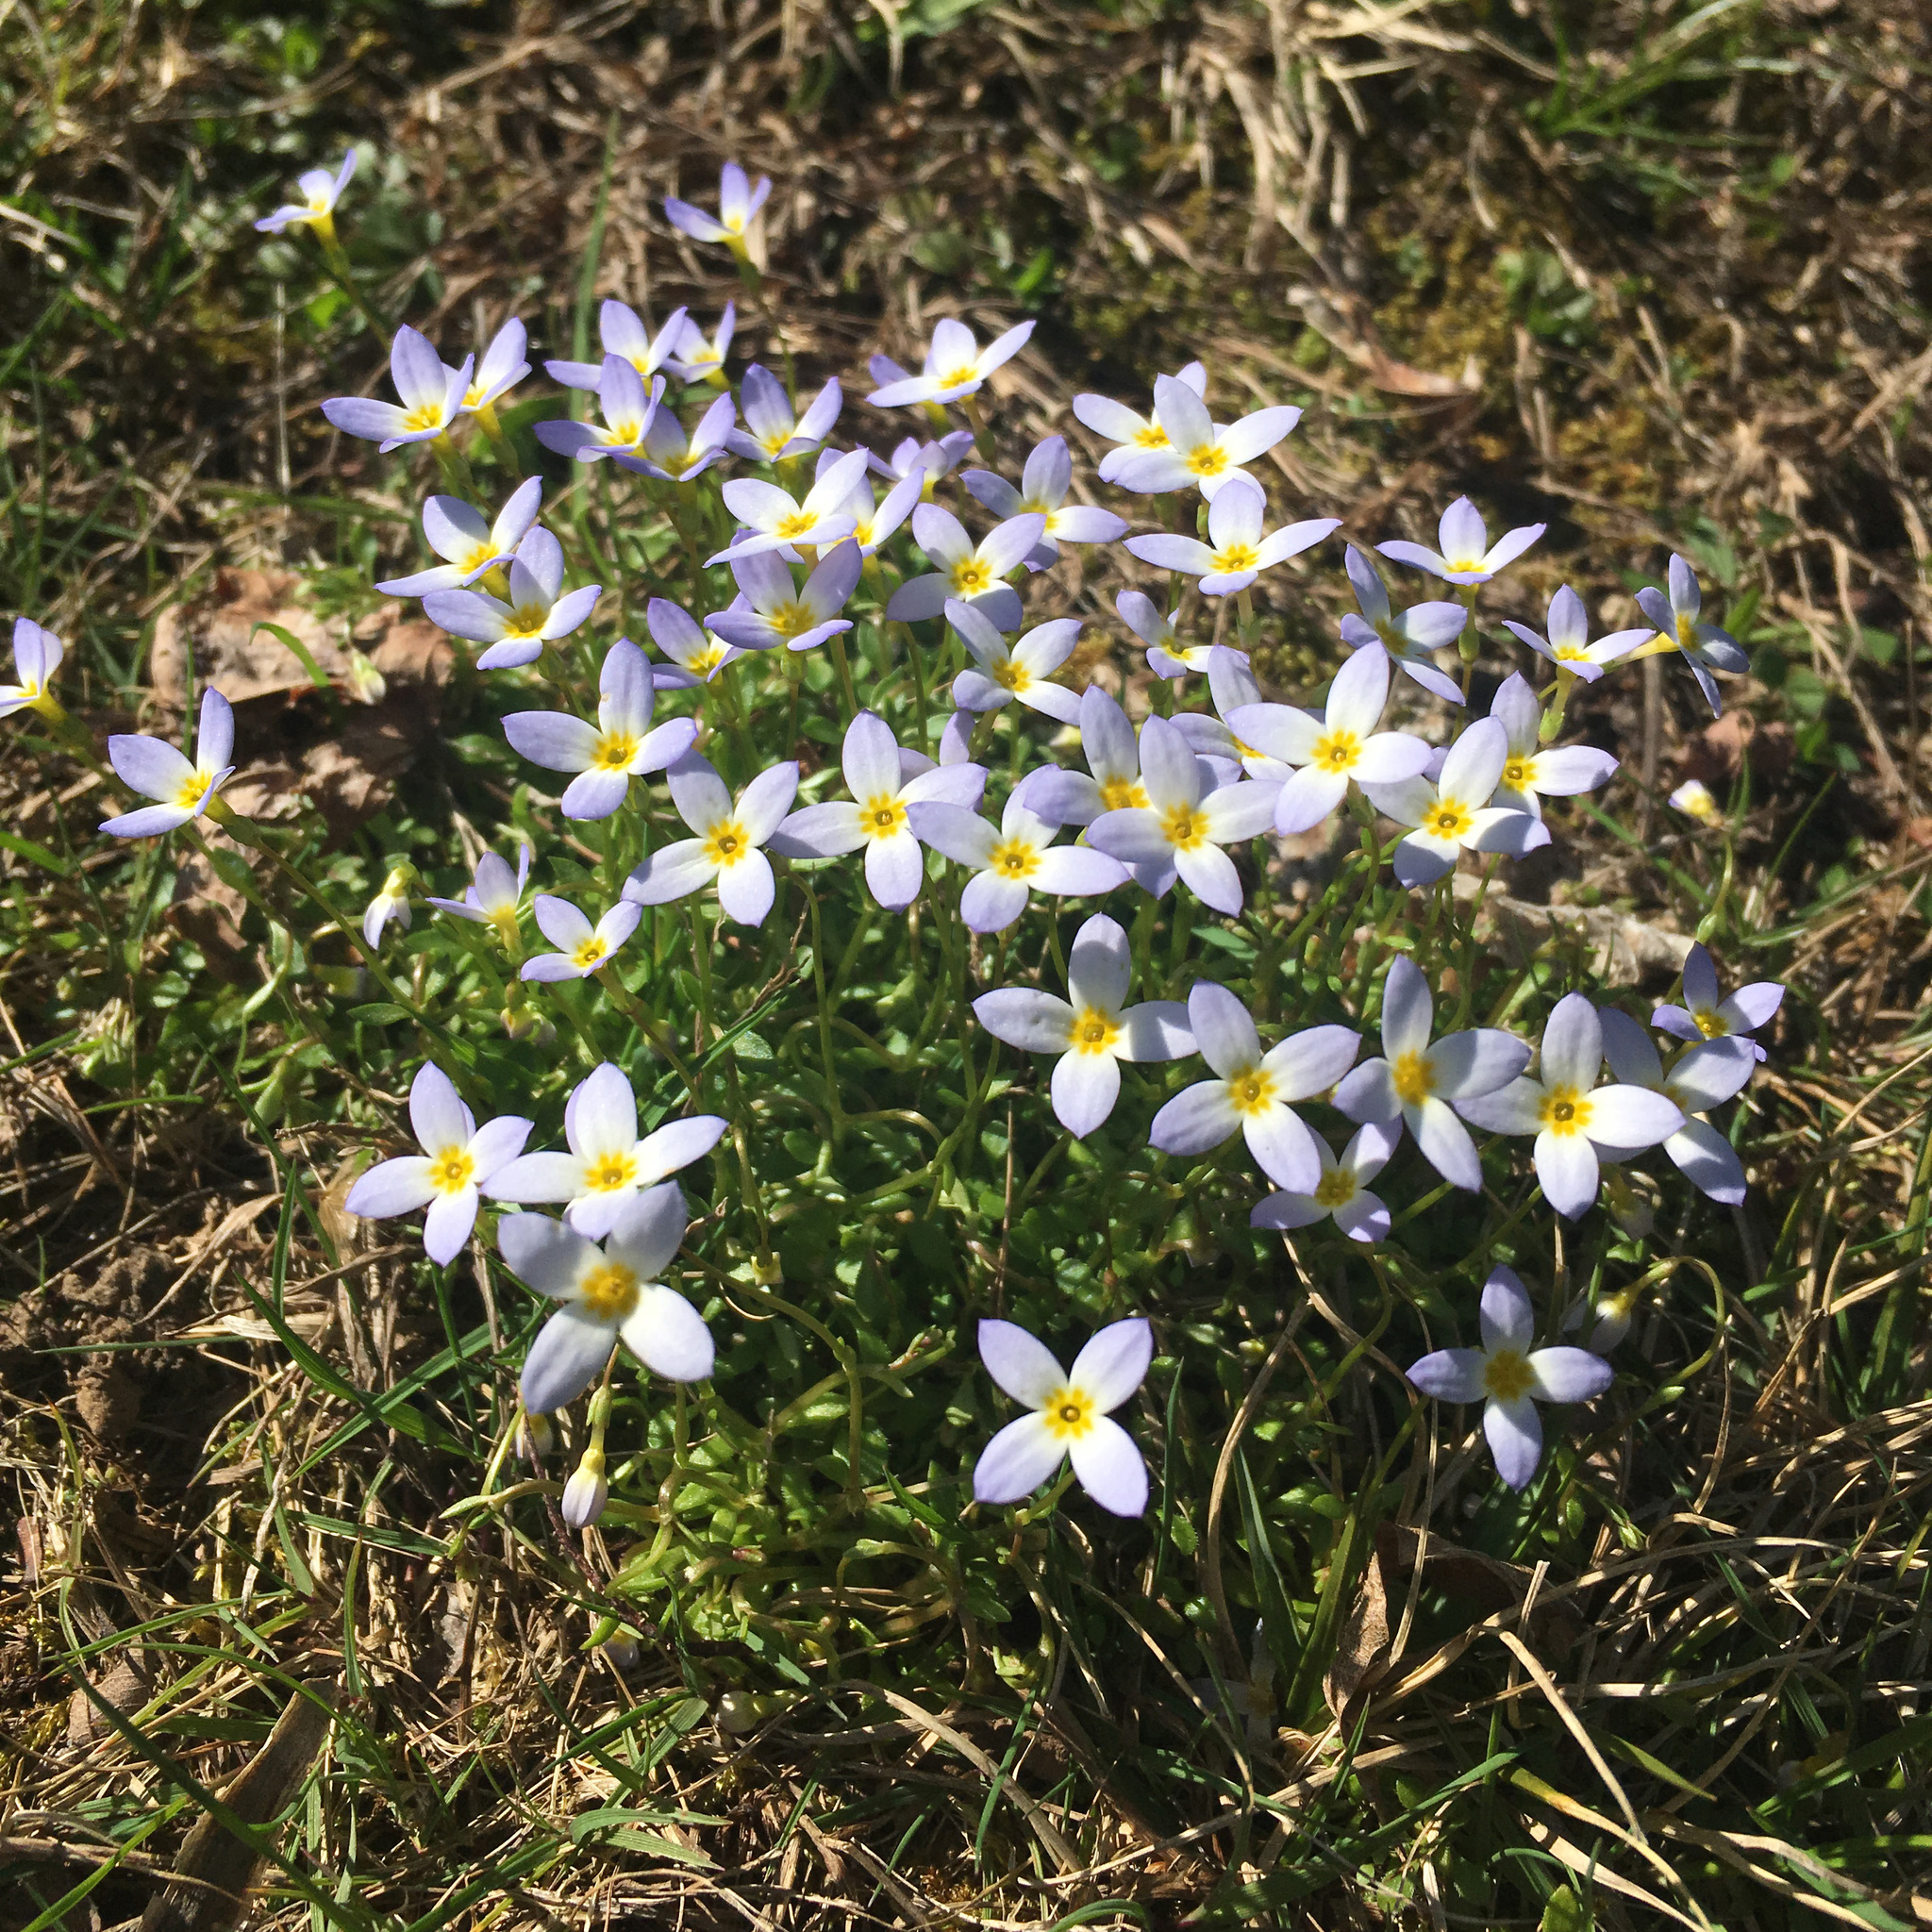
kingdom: Plantae
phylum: Tracheophyta
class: Magnoliopsida
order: Gentianales
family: Rubiaceae
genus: Houstonia
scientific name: Houstonia caerulea
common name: Bluets
